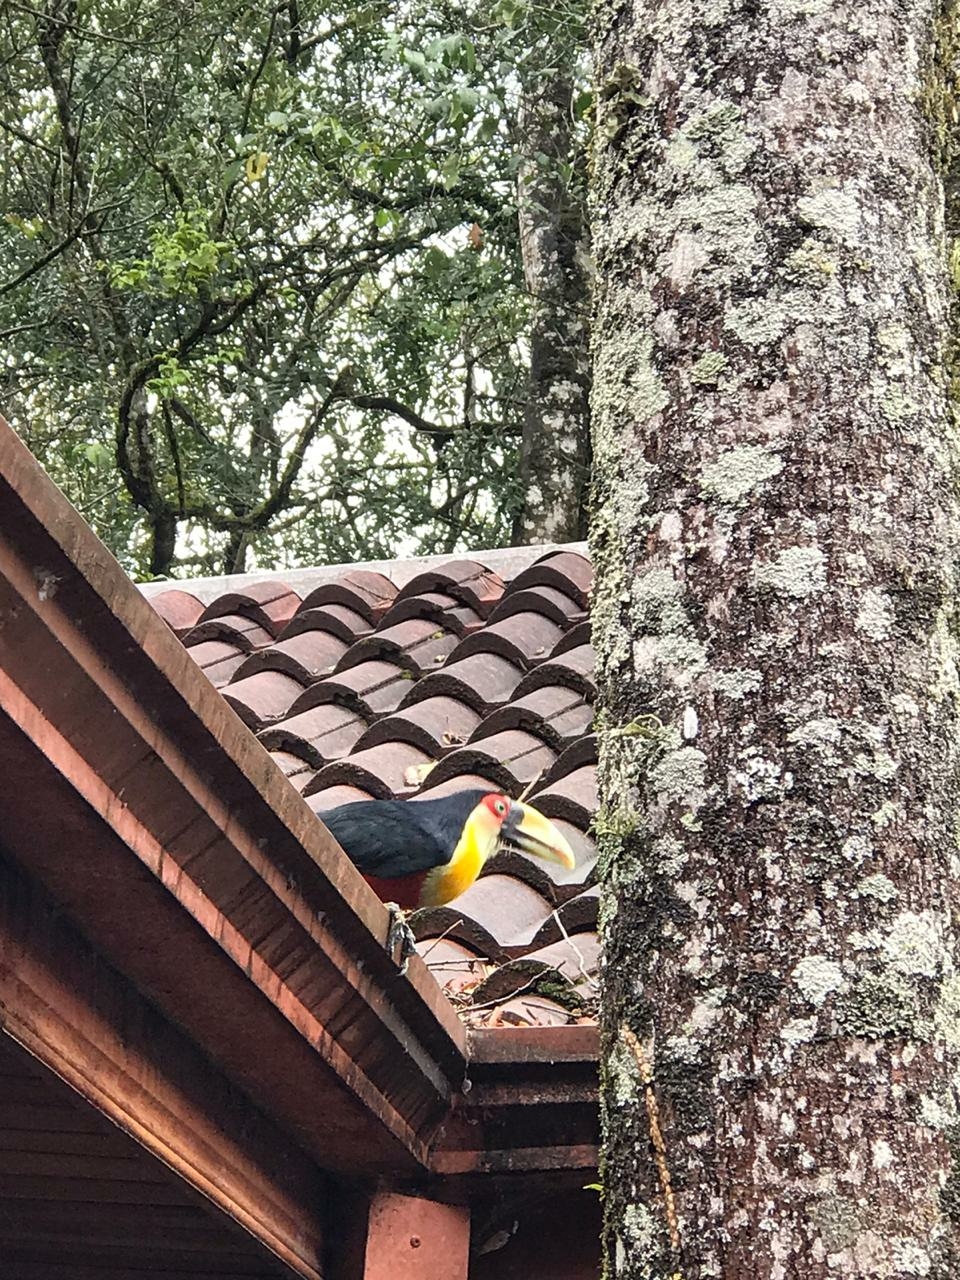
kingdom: Animalia
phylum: Chordata
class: Aves
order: Piciformes
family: Ramphastidae
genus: Ramphastos
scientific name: Ramphastos dicolorus
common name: Green-billed toucan
